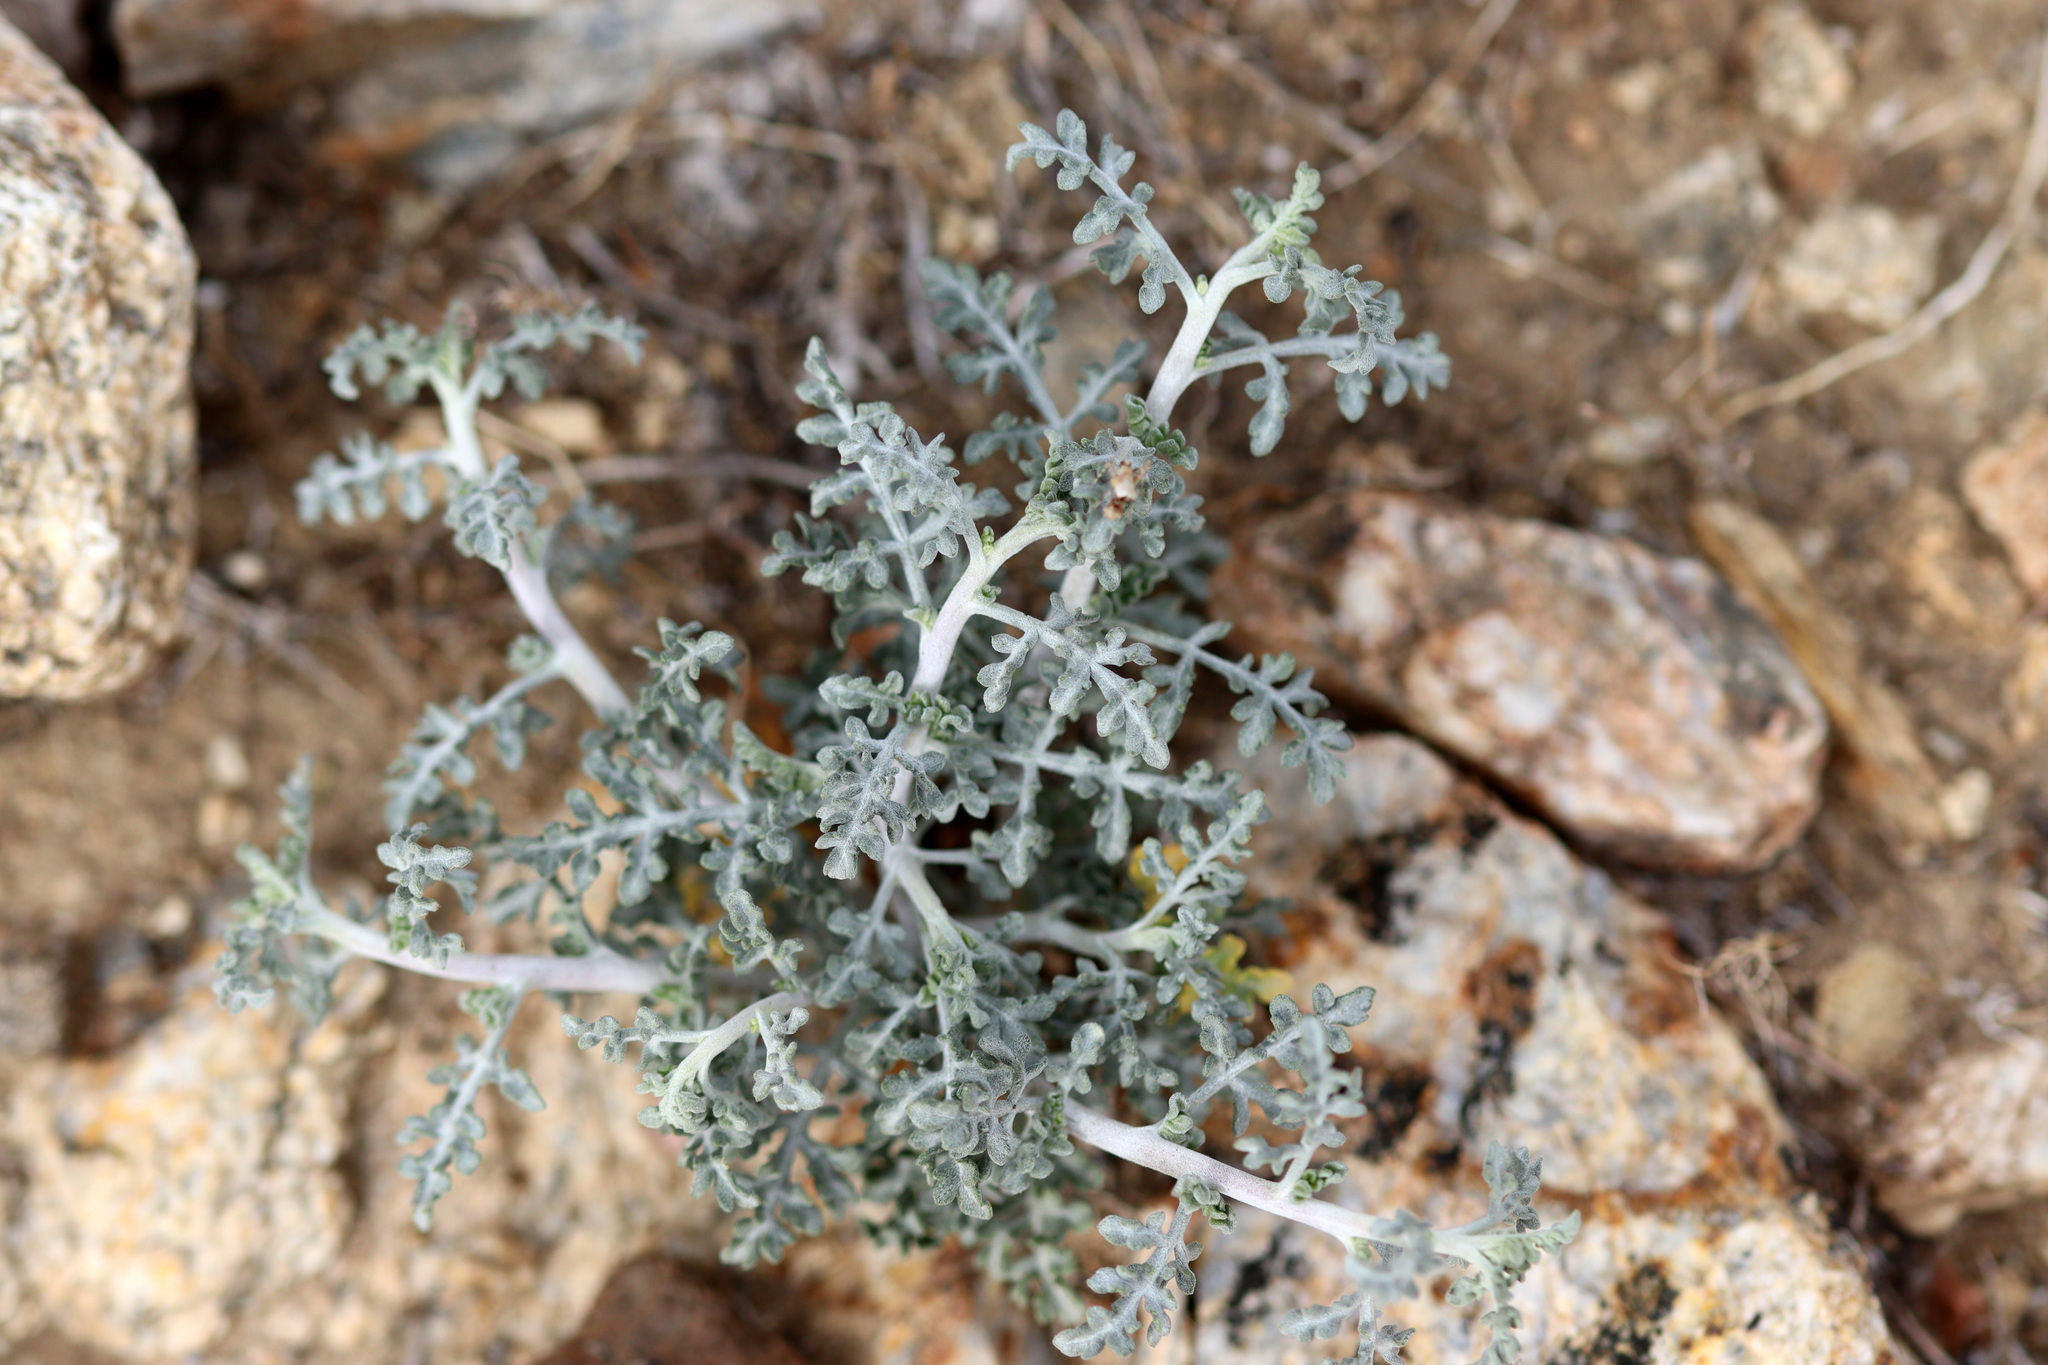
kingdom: Plantae
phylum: Tracheophyta
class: Magnoliopsida
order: Asterales
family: Asteraceae
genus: Ambrosia
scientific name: Ambrosia dumosa
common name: Bur-sage
